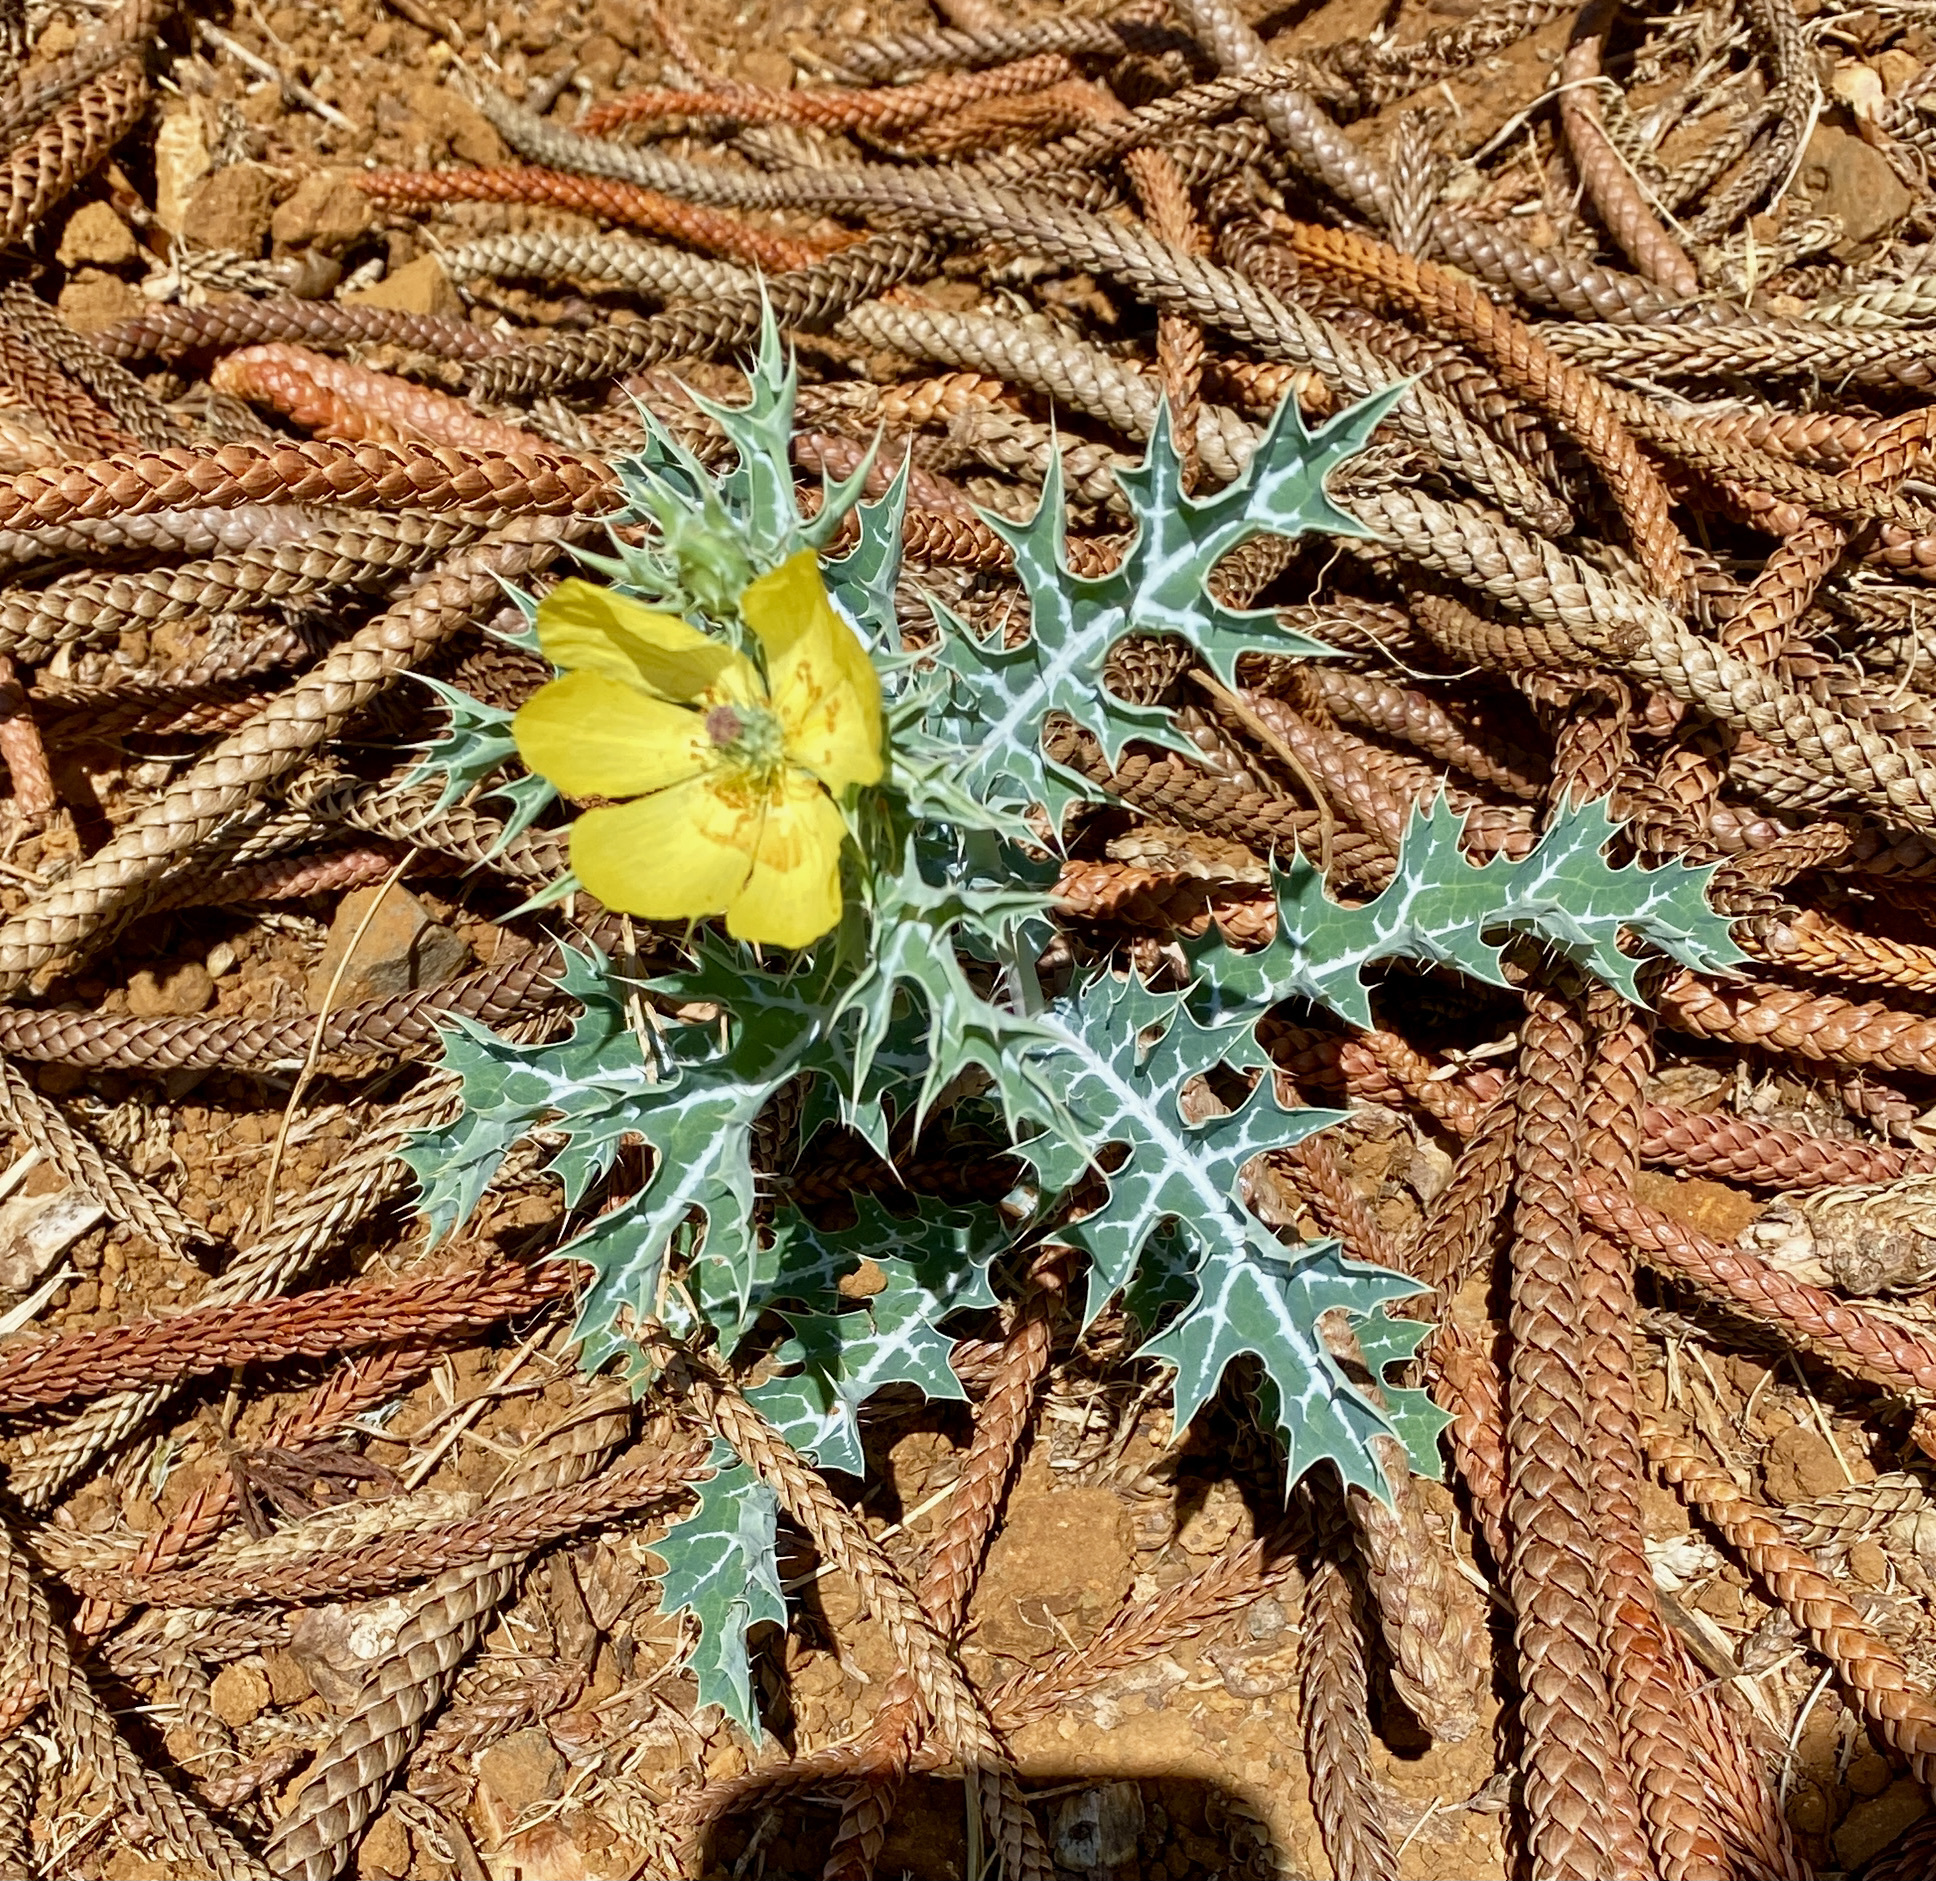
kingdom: Plantae
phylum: Tracheophyta
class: Magnoliopsida
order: Ranunculales
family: Papaveraceae
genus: Argemone
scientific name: Argemone mexicana
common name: Mexican poppy
